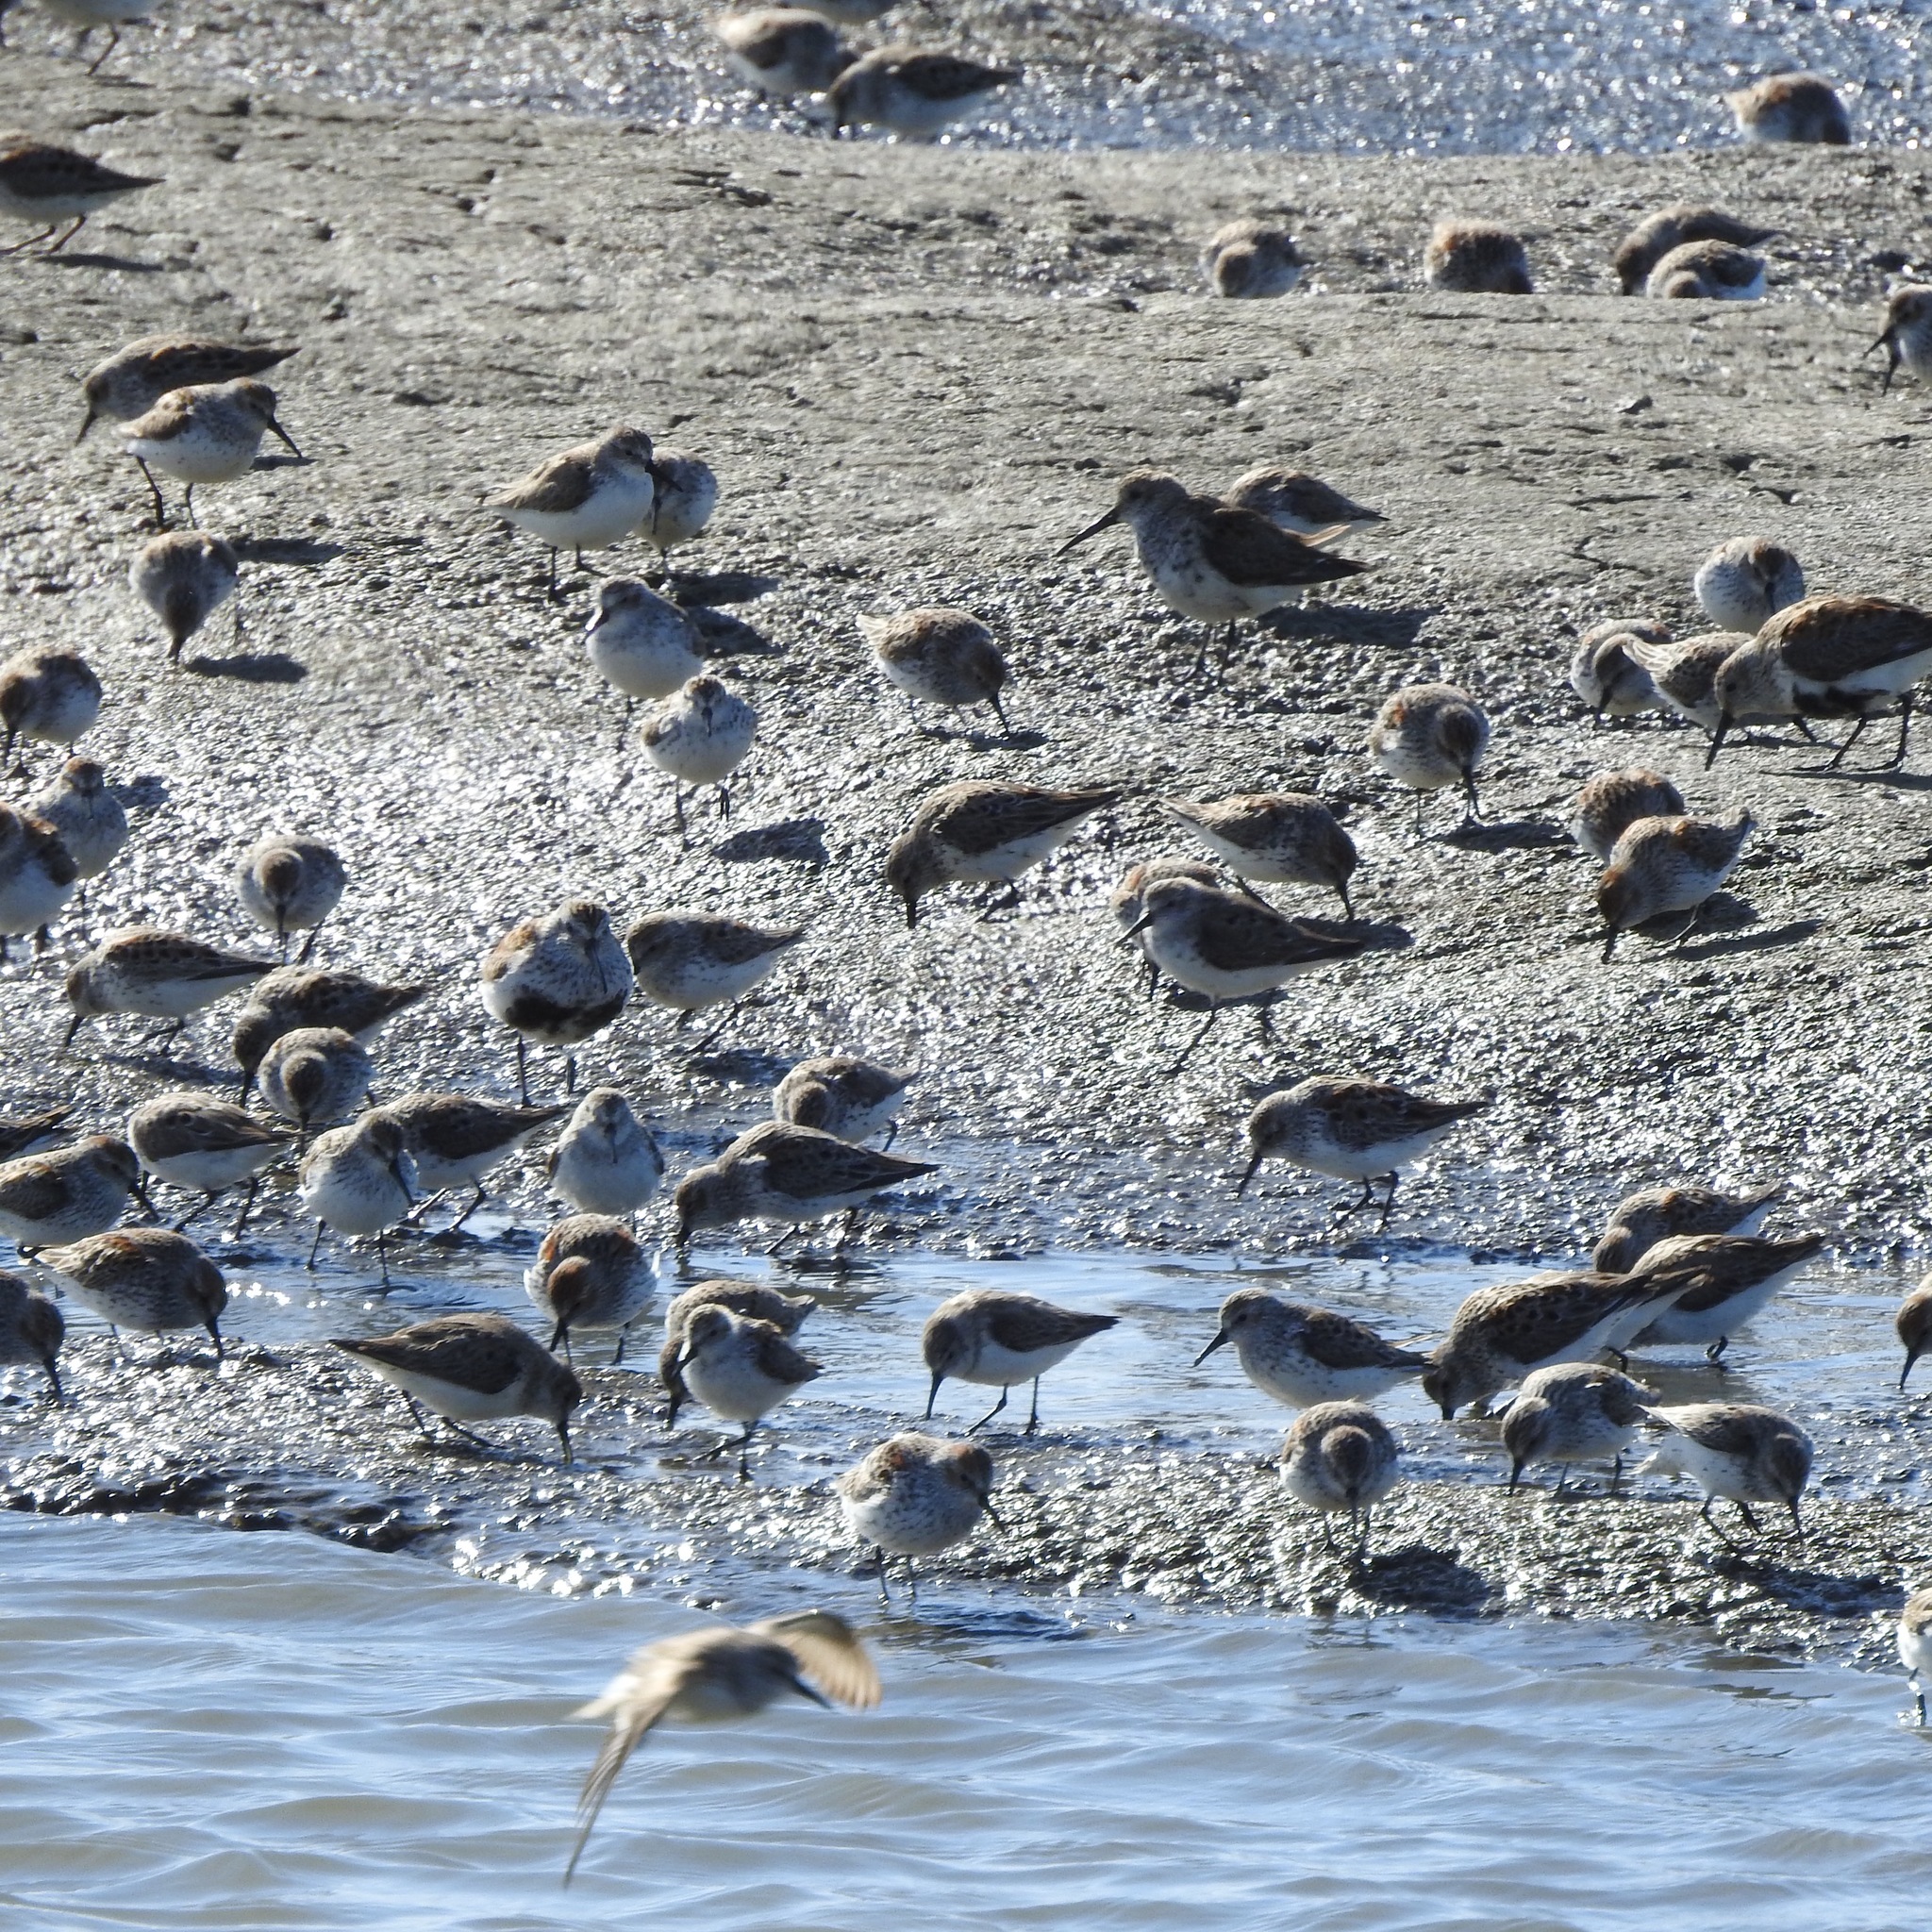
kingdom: Animalia
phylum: Chordata
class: Aves
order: Charadriiformes
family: Scolopacidae
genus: Calidris
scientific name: Calidris mauri
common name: Western sandpiper
